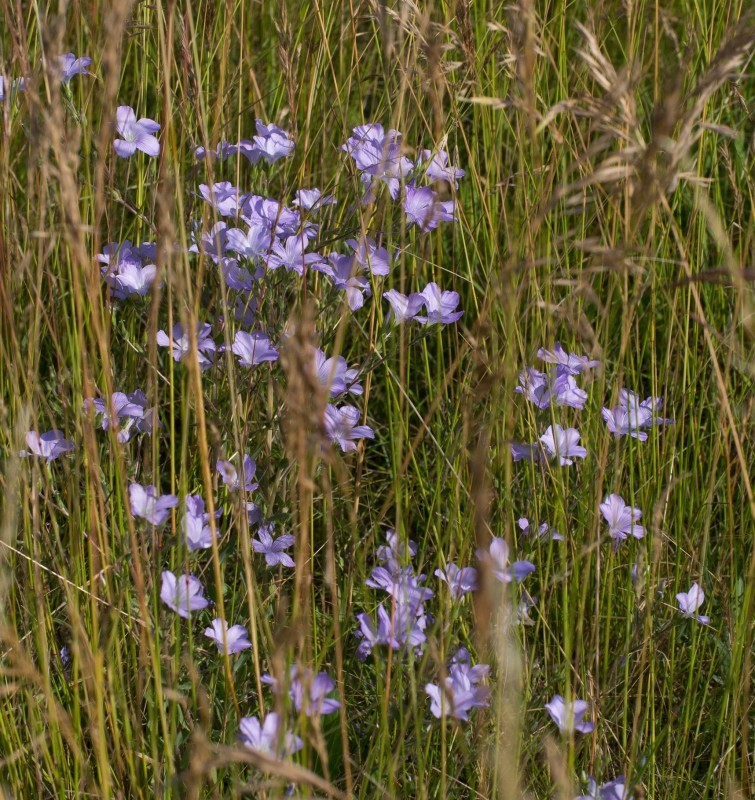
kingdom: Plantae
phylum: Tracheophyta
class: Magnoliopsida
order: Malpighiales
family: Linaceae
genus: Linum
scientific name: Linum hirsutum
